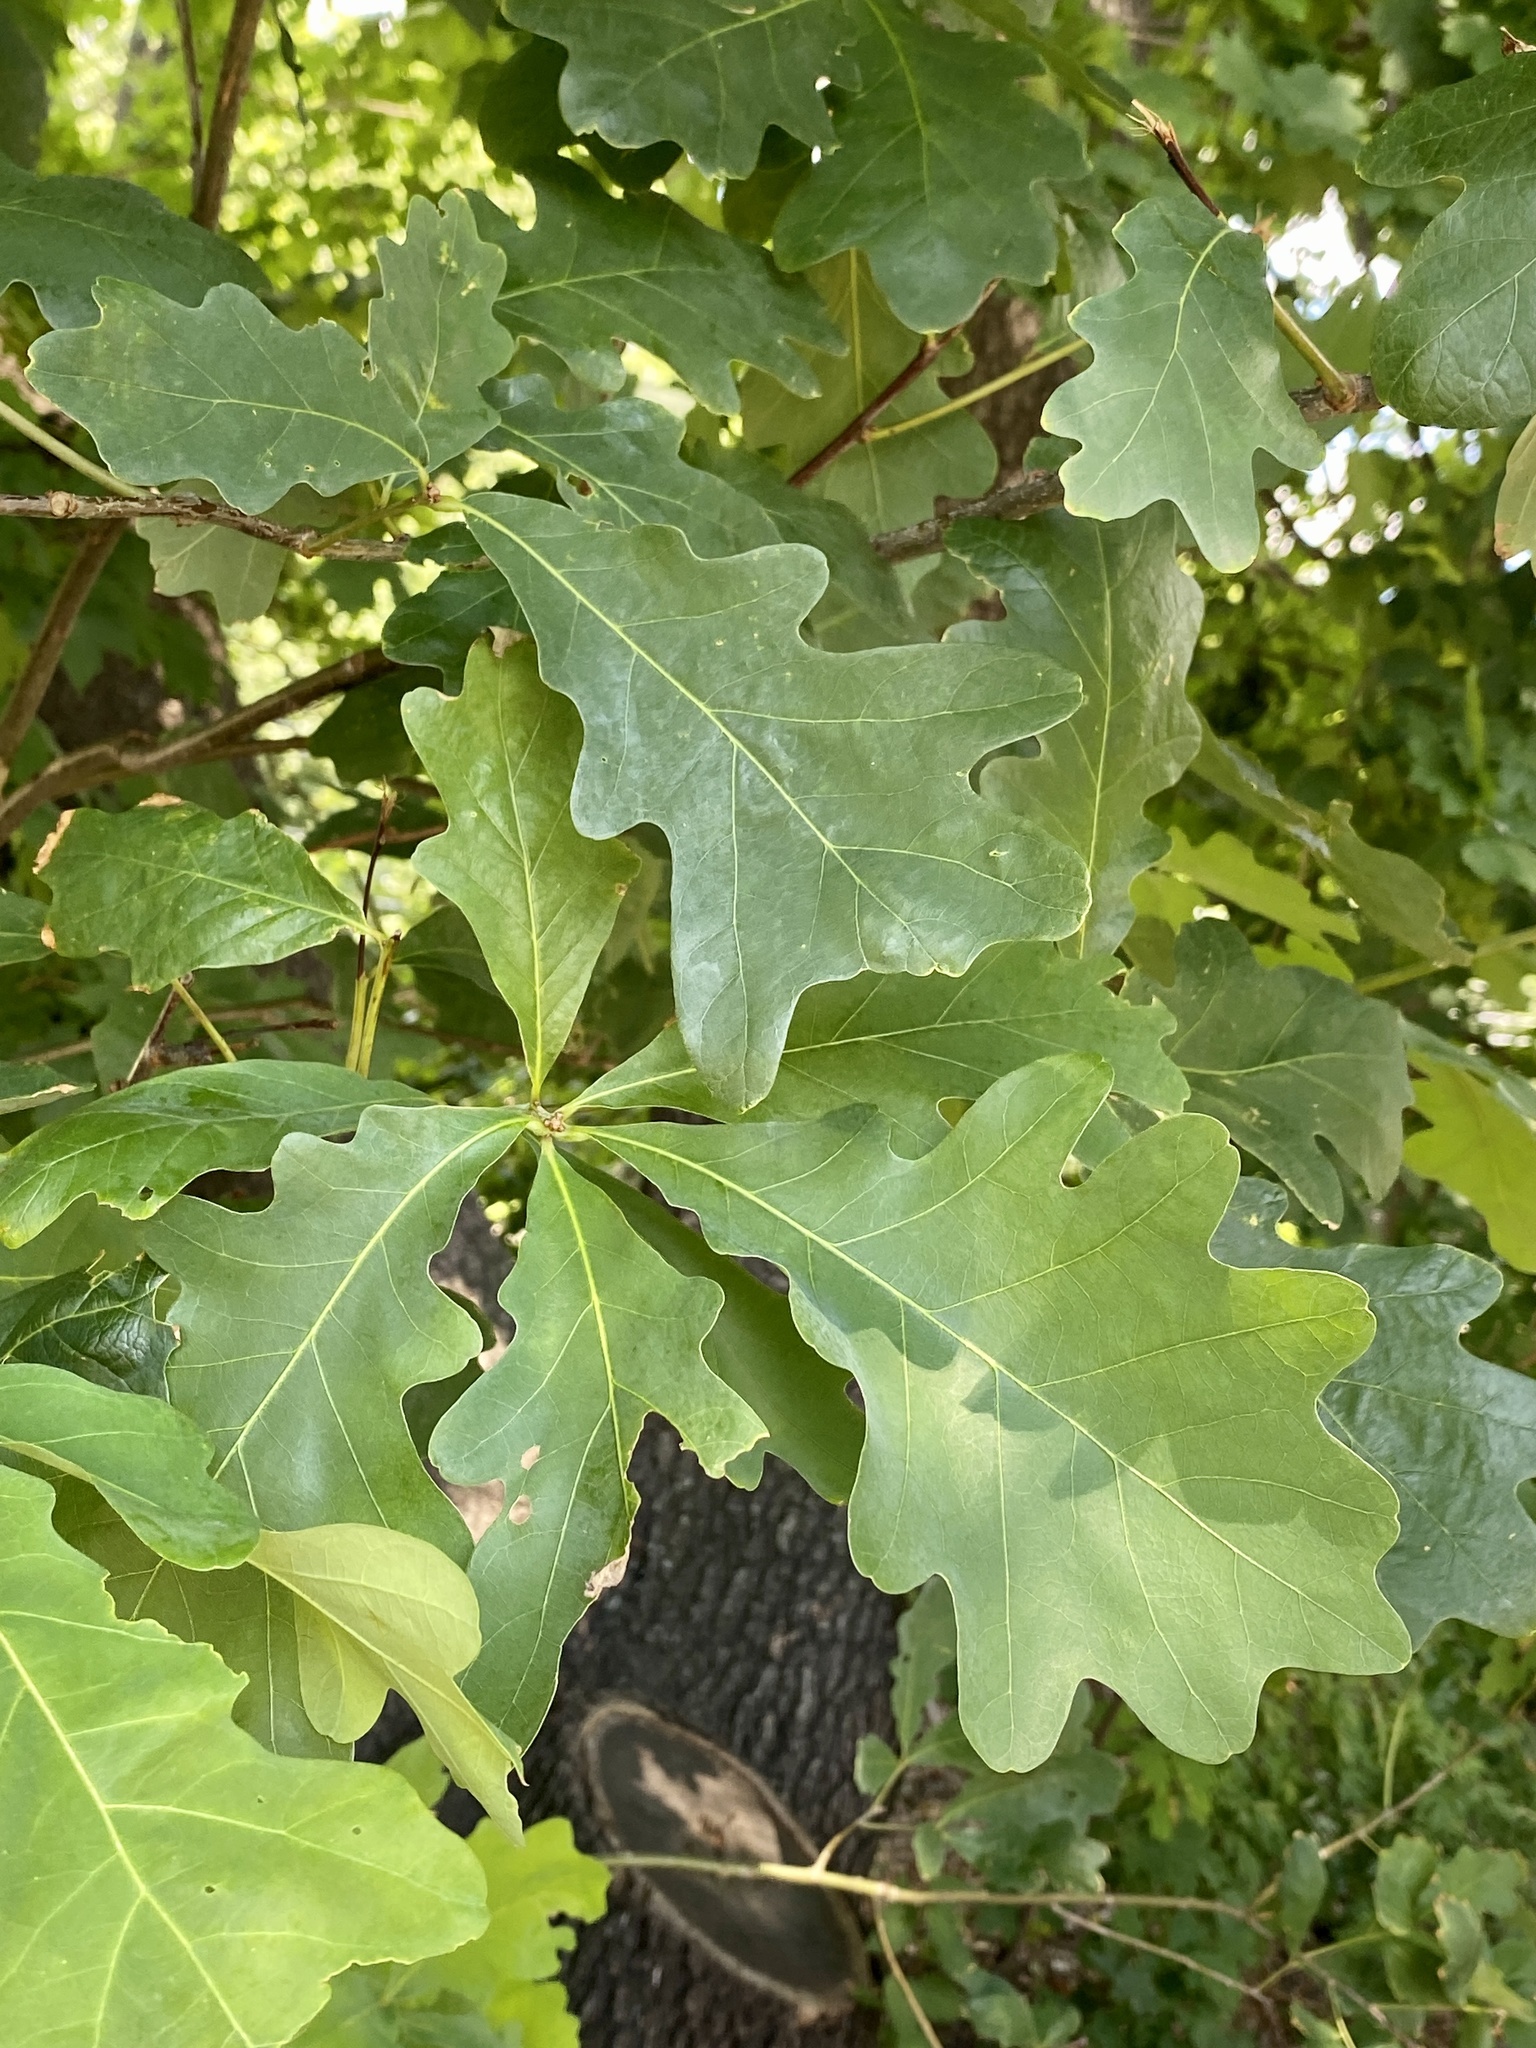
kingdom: Plantae
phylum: Tracheophyta
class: Magnoliopsida
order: Fagales
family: Fagaceae
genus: Quercus
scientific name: Quercus alba
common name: White oak
